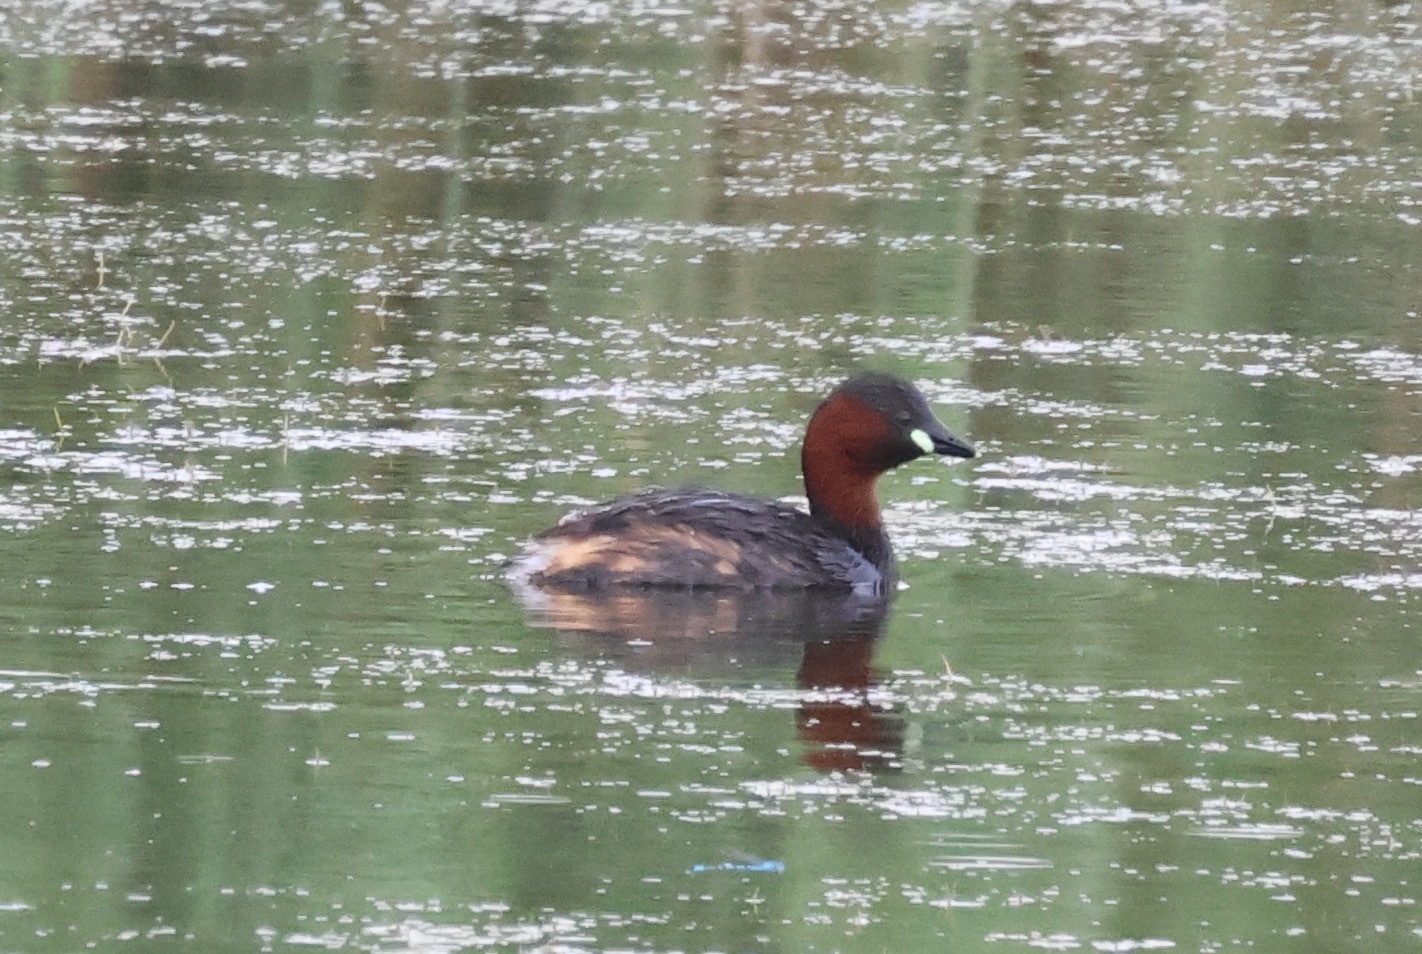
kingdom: Animalia
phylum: Chordata
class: Aves
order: Podicipediformes
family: Podicipedidae
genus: Tachybaptus
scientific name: Tachybaptus ruficollis
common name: Little grebe
